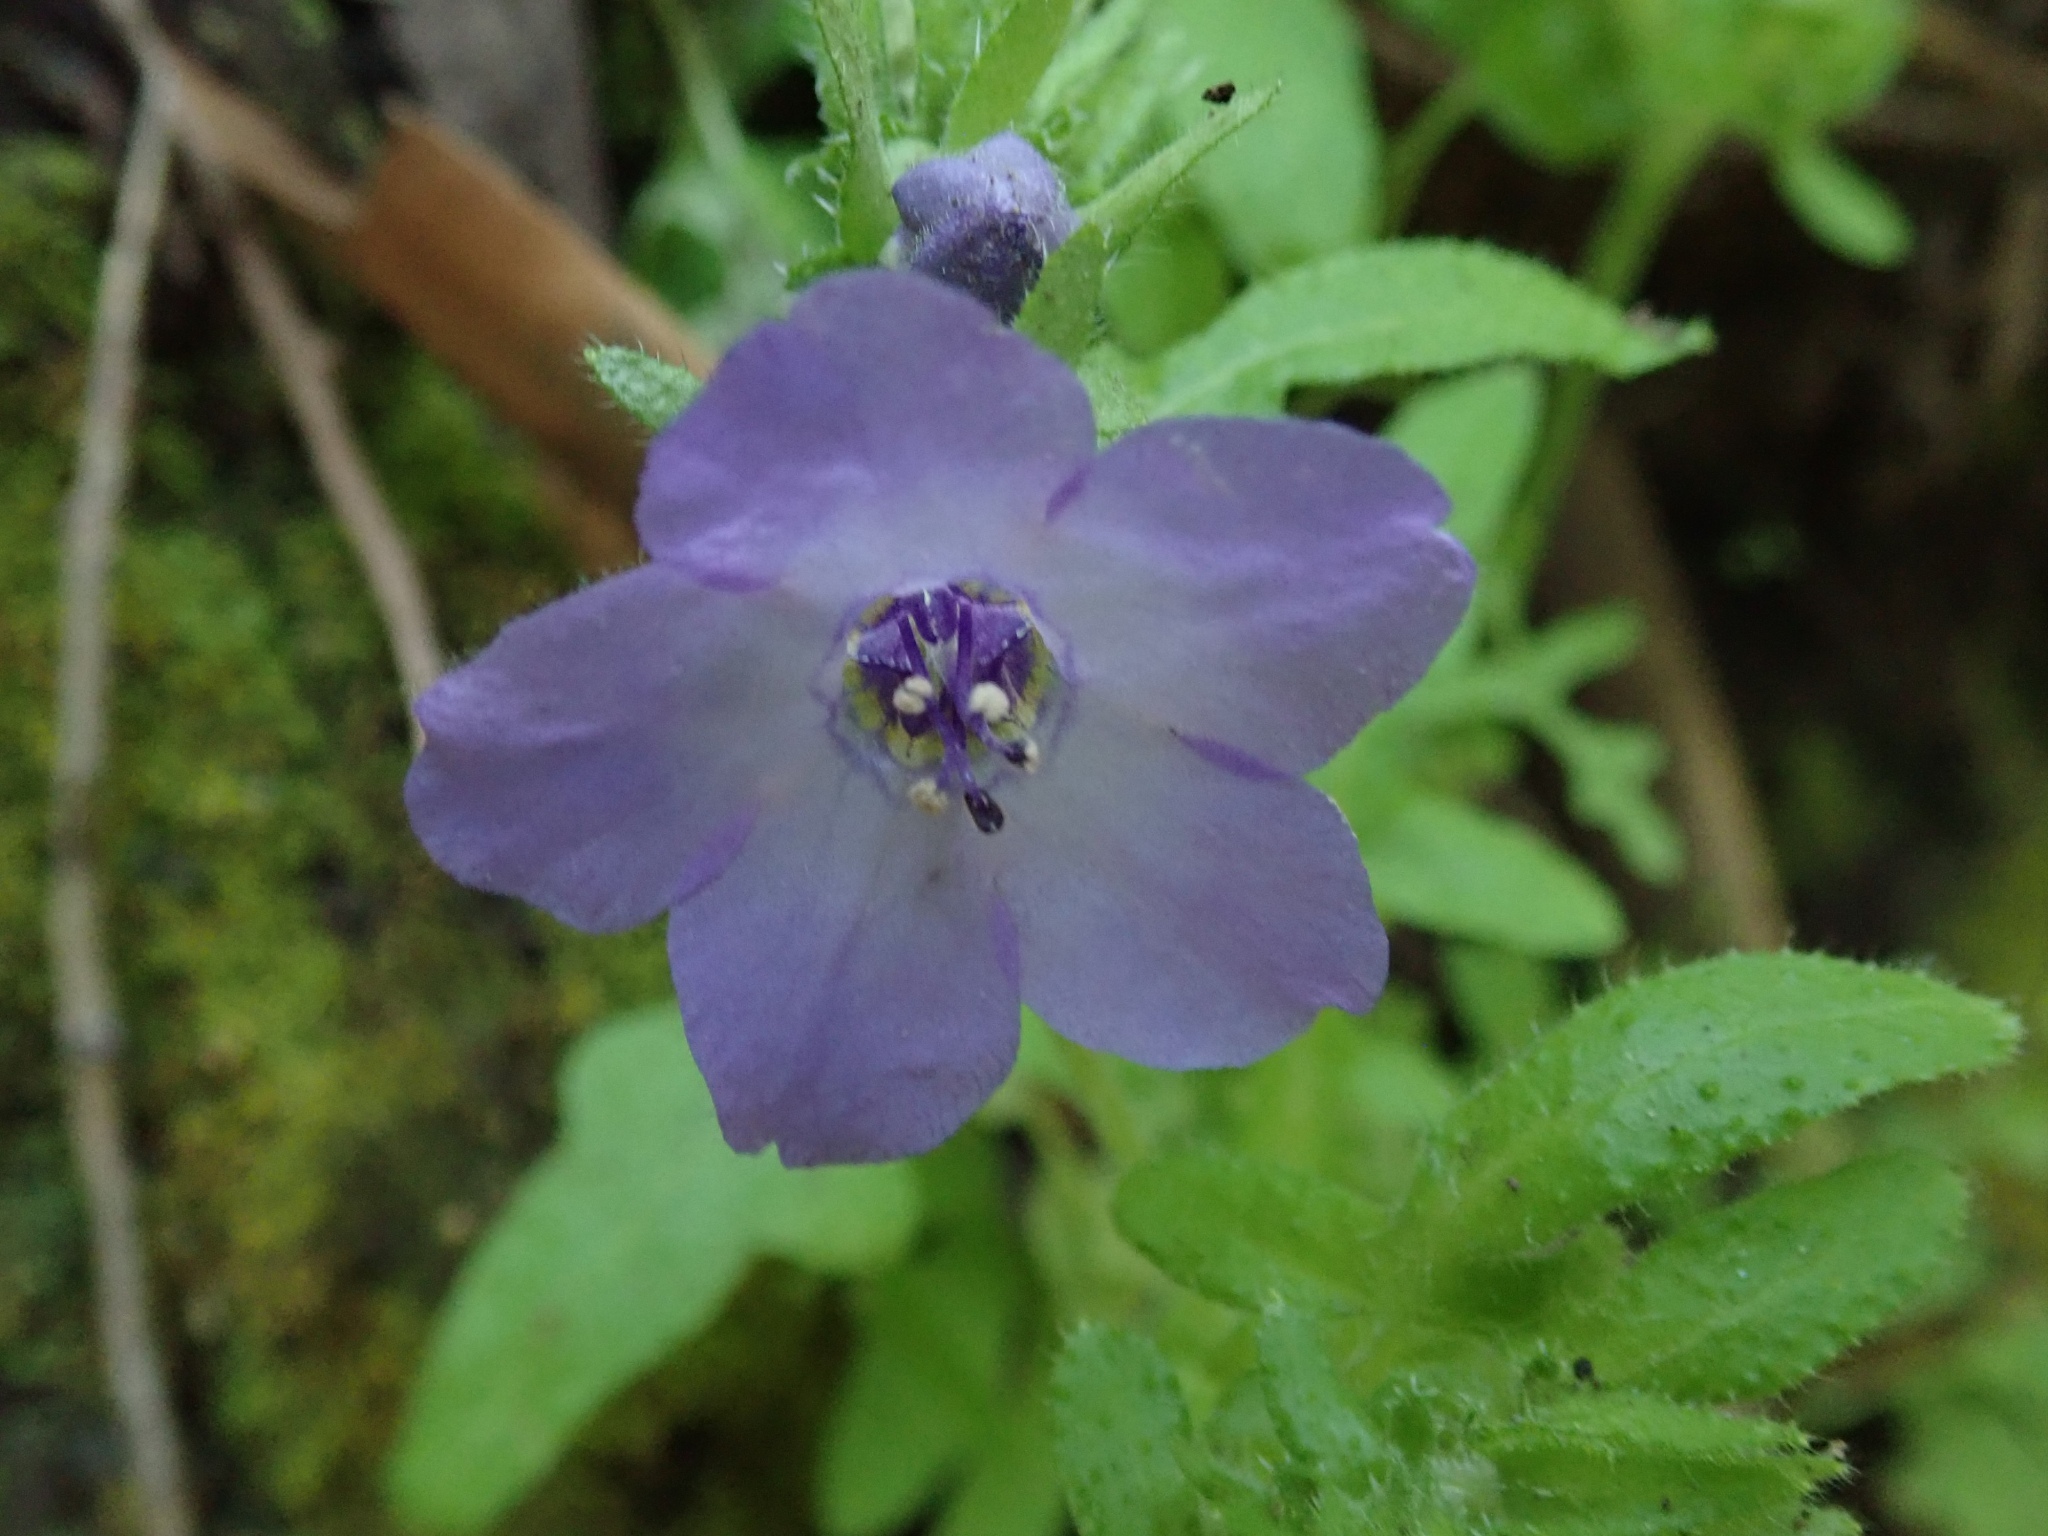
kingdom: Plantae
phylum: Tracheophyta
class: Magnoliopsida
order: Boraginales
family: Hydrophyllaceae
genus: Pholistoma
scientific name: Pholistoma auritum
